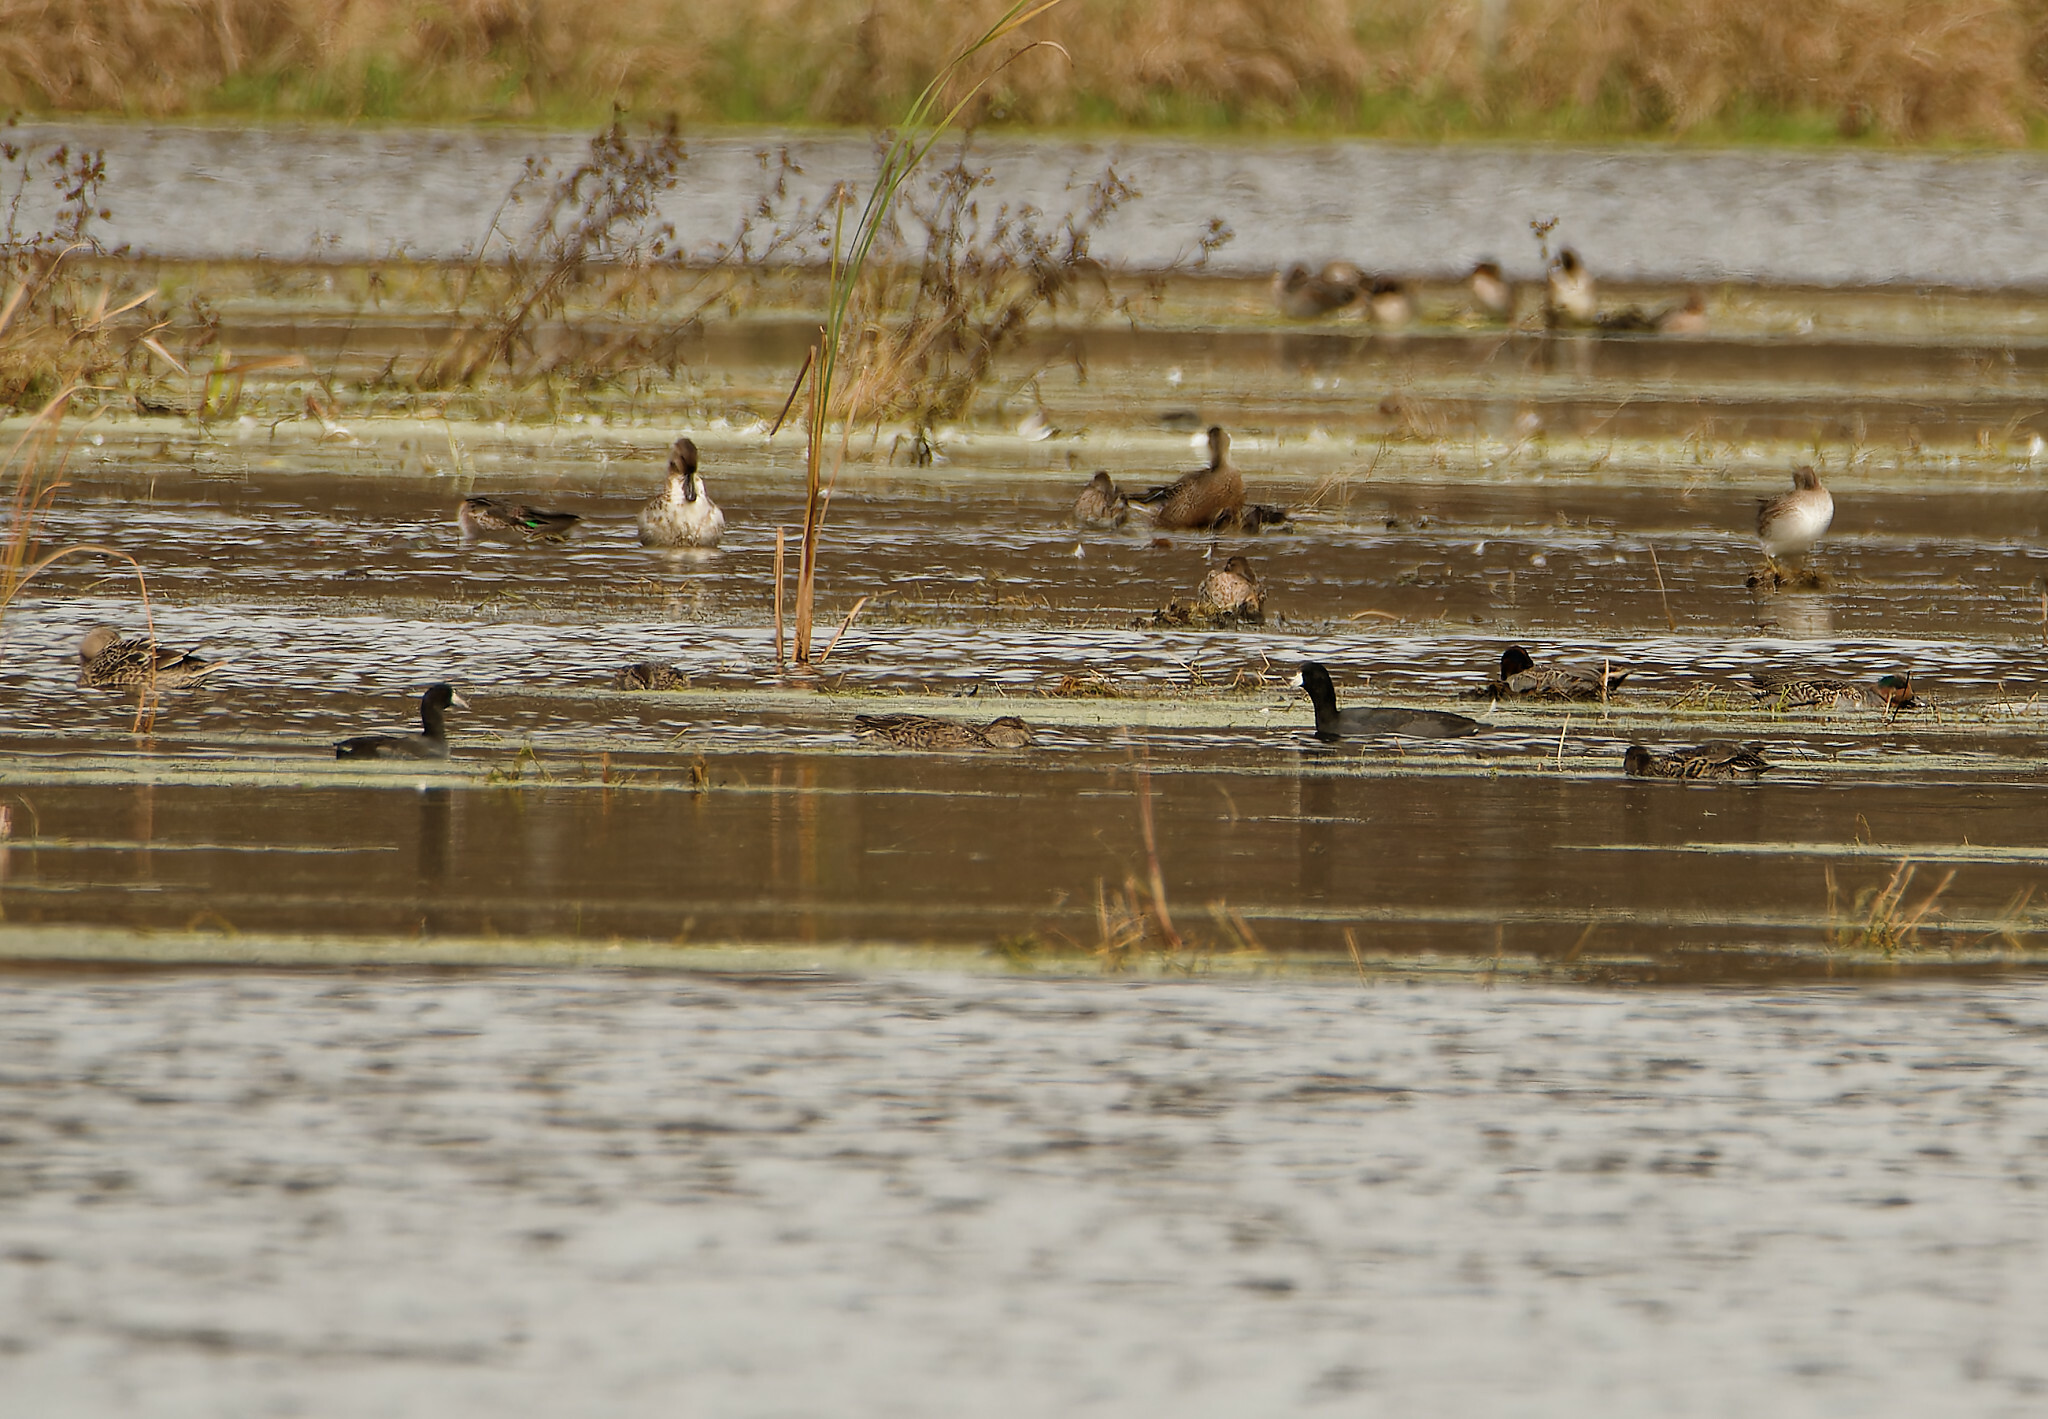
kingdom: Animalia
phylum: Chordata
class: Aves
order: Gruiformes
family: Rallidae
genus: Fulica
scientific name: Fulica americana
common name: American coot
